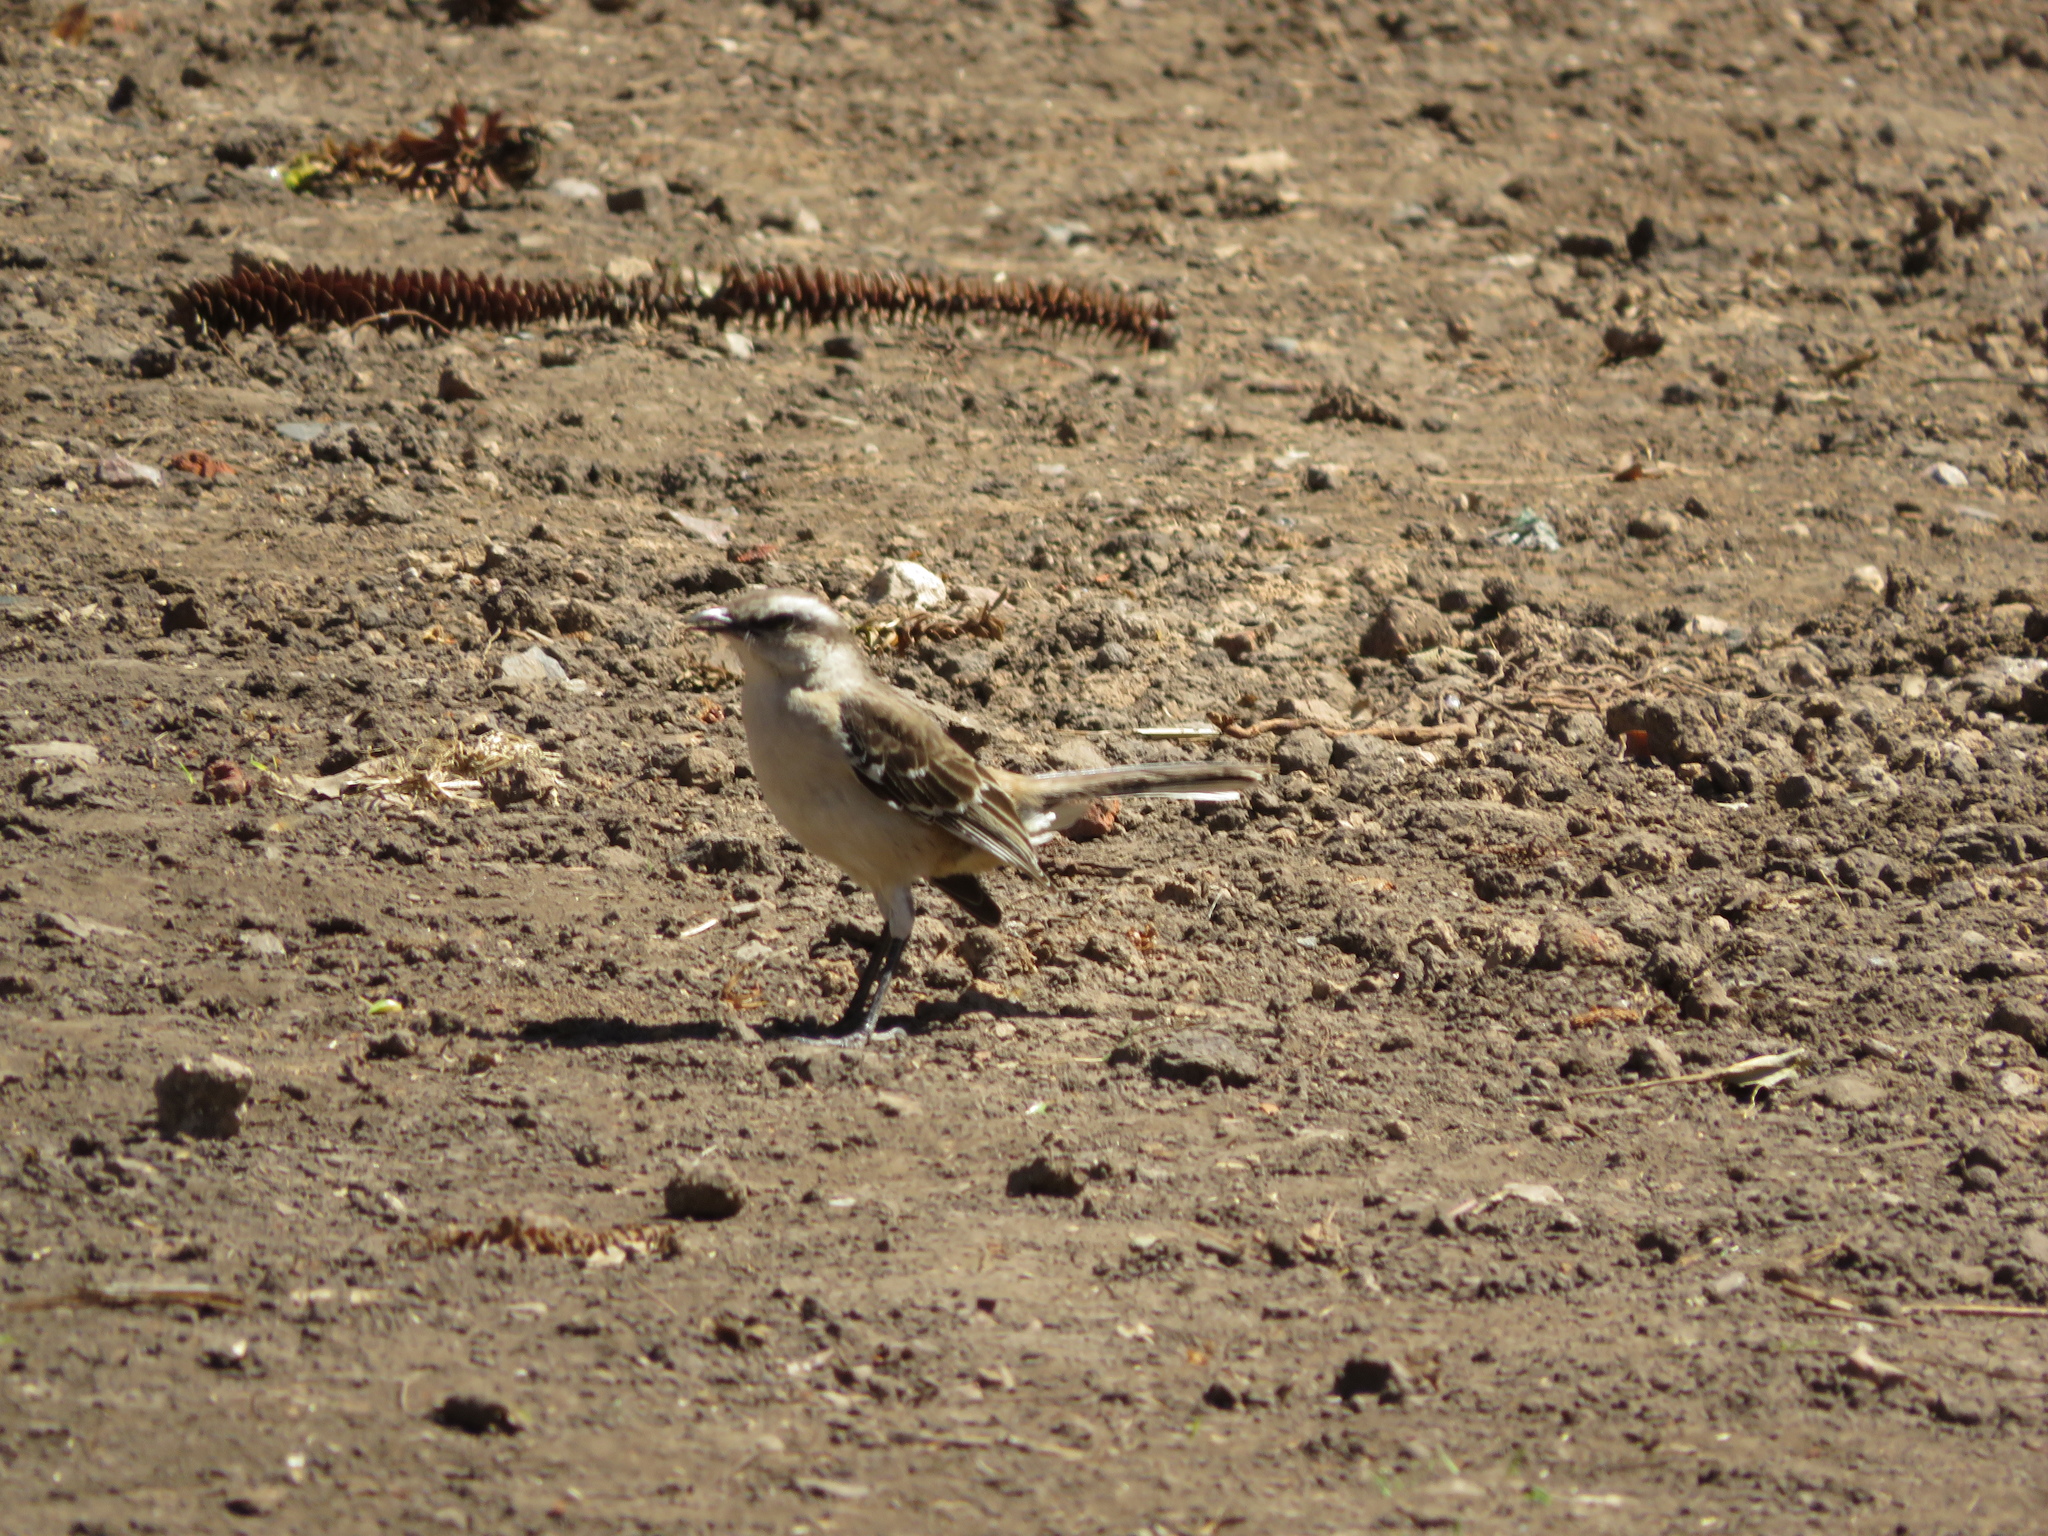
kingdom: Animalia
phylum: Chordata
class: Aves
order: Passeriformes
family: Mimidae
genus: Mimus
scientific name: Mimus saturninus
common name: Chalk-browed mockingbird
